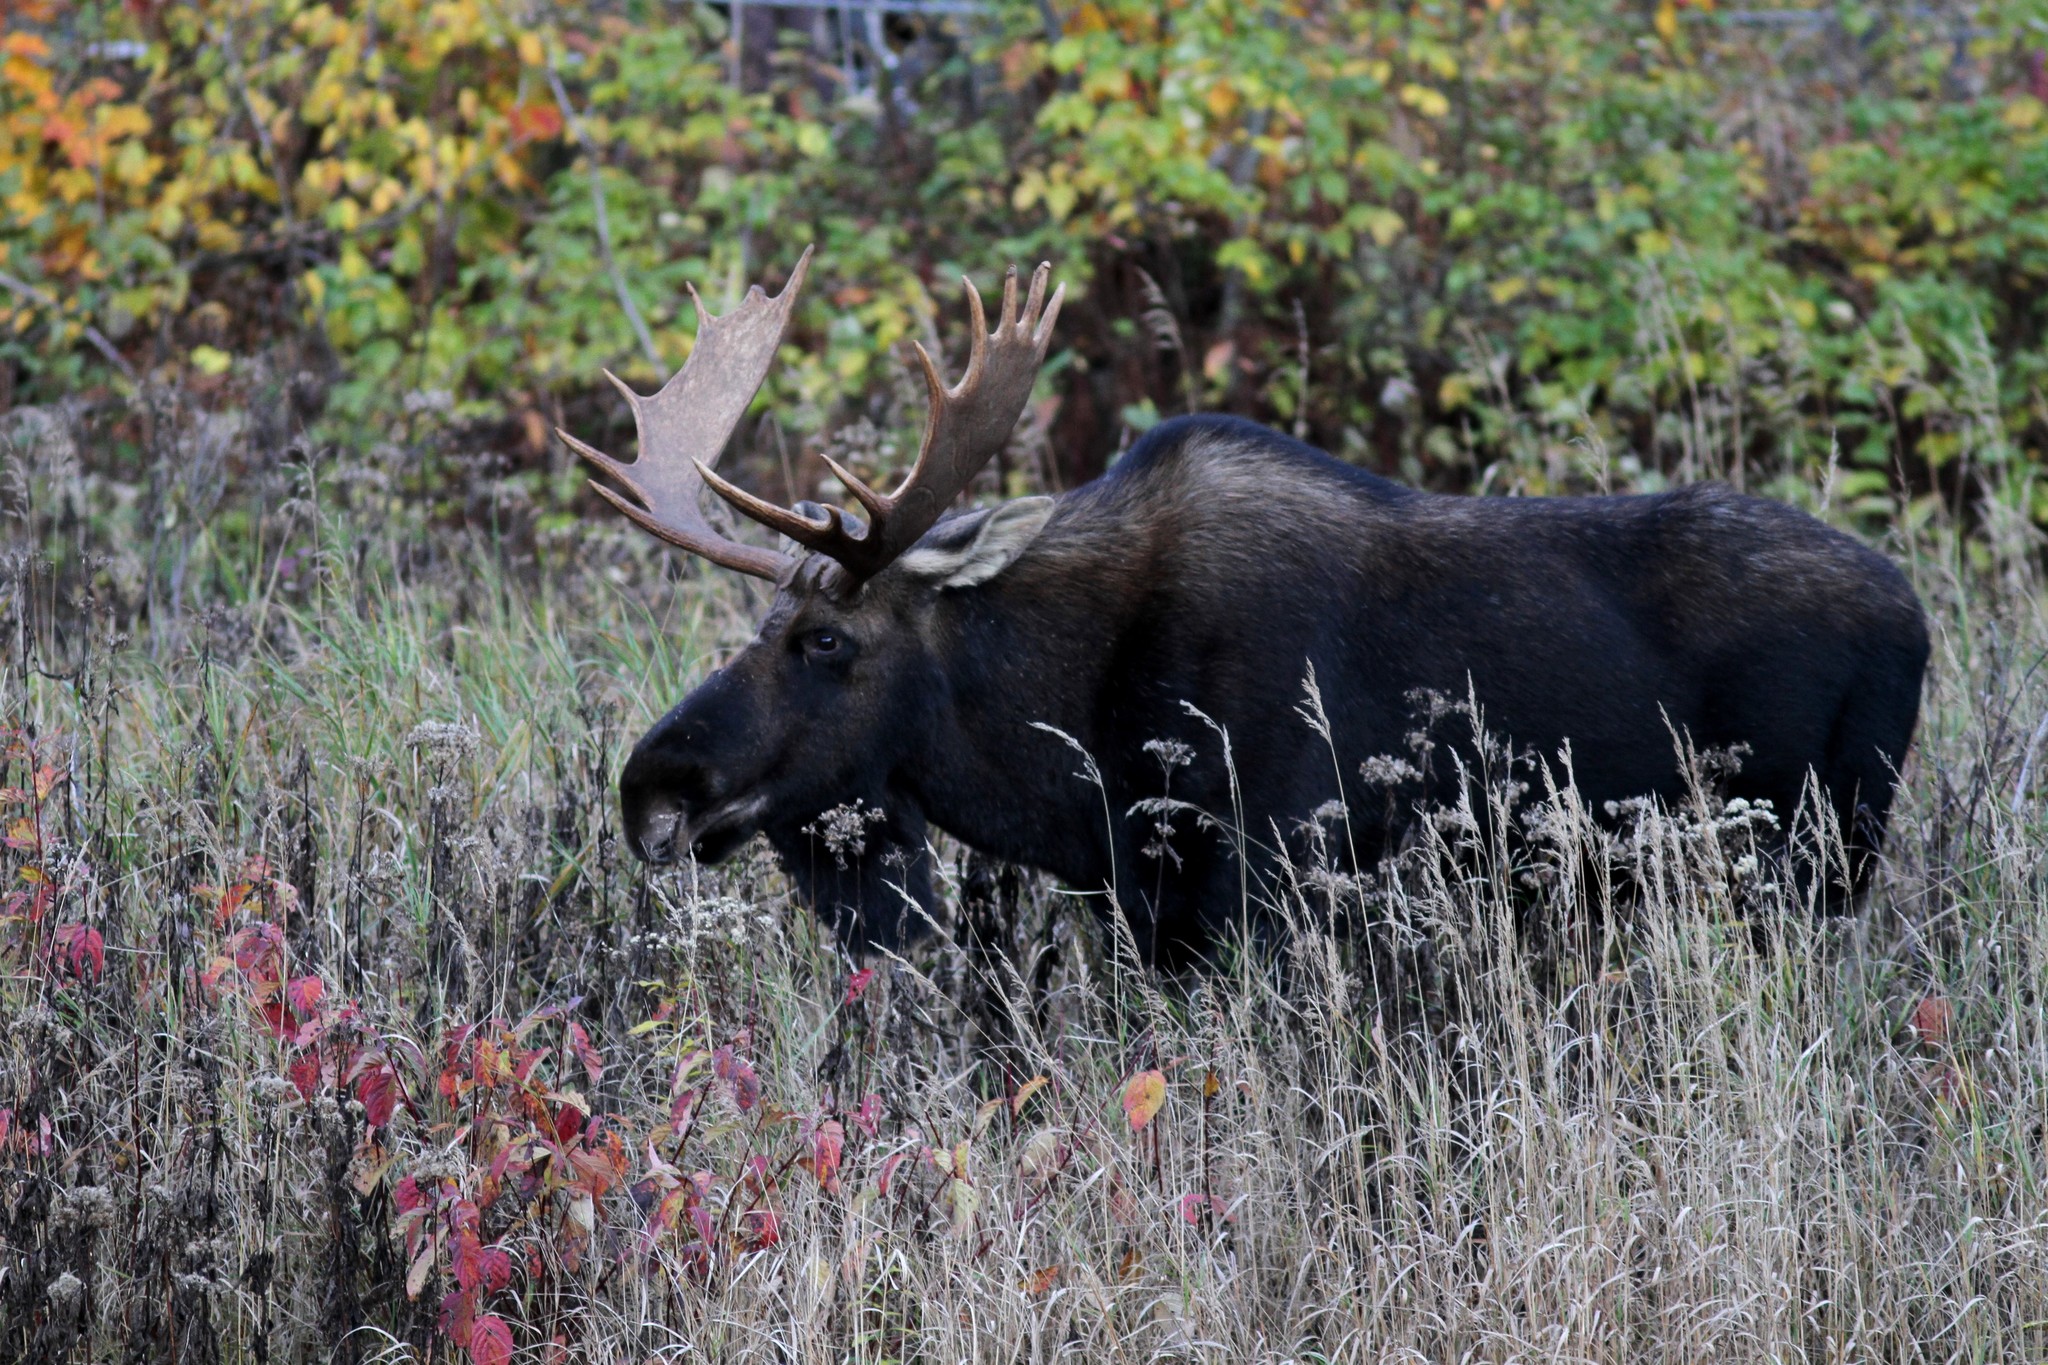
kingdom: Animalia
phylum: Chordata
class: Mammalia
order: Artiodactyla
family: Cervidae
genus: Alces
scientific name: Alces alces
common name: Moose
